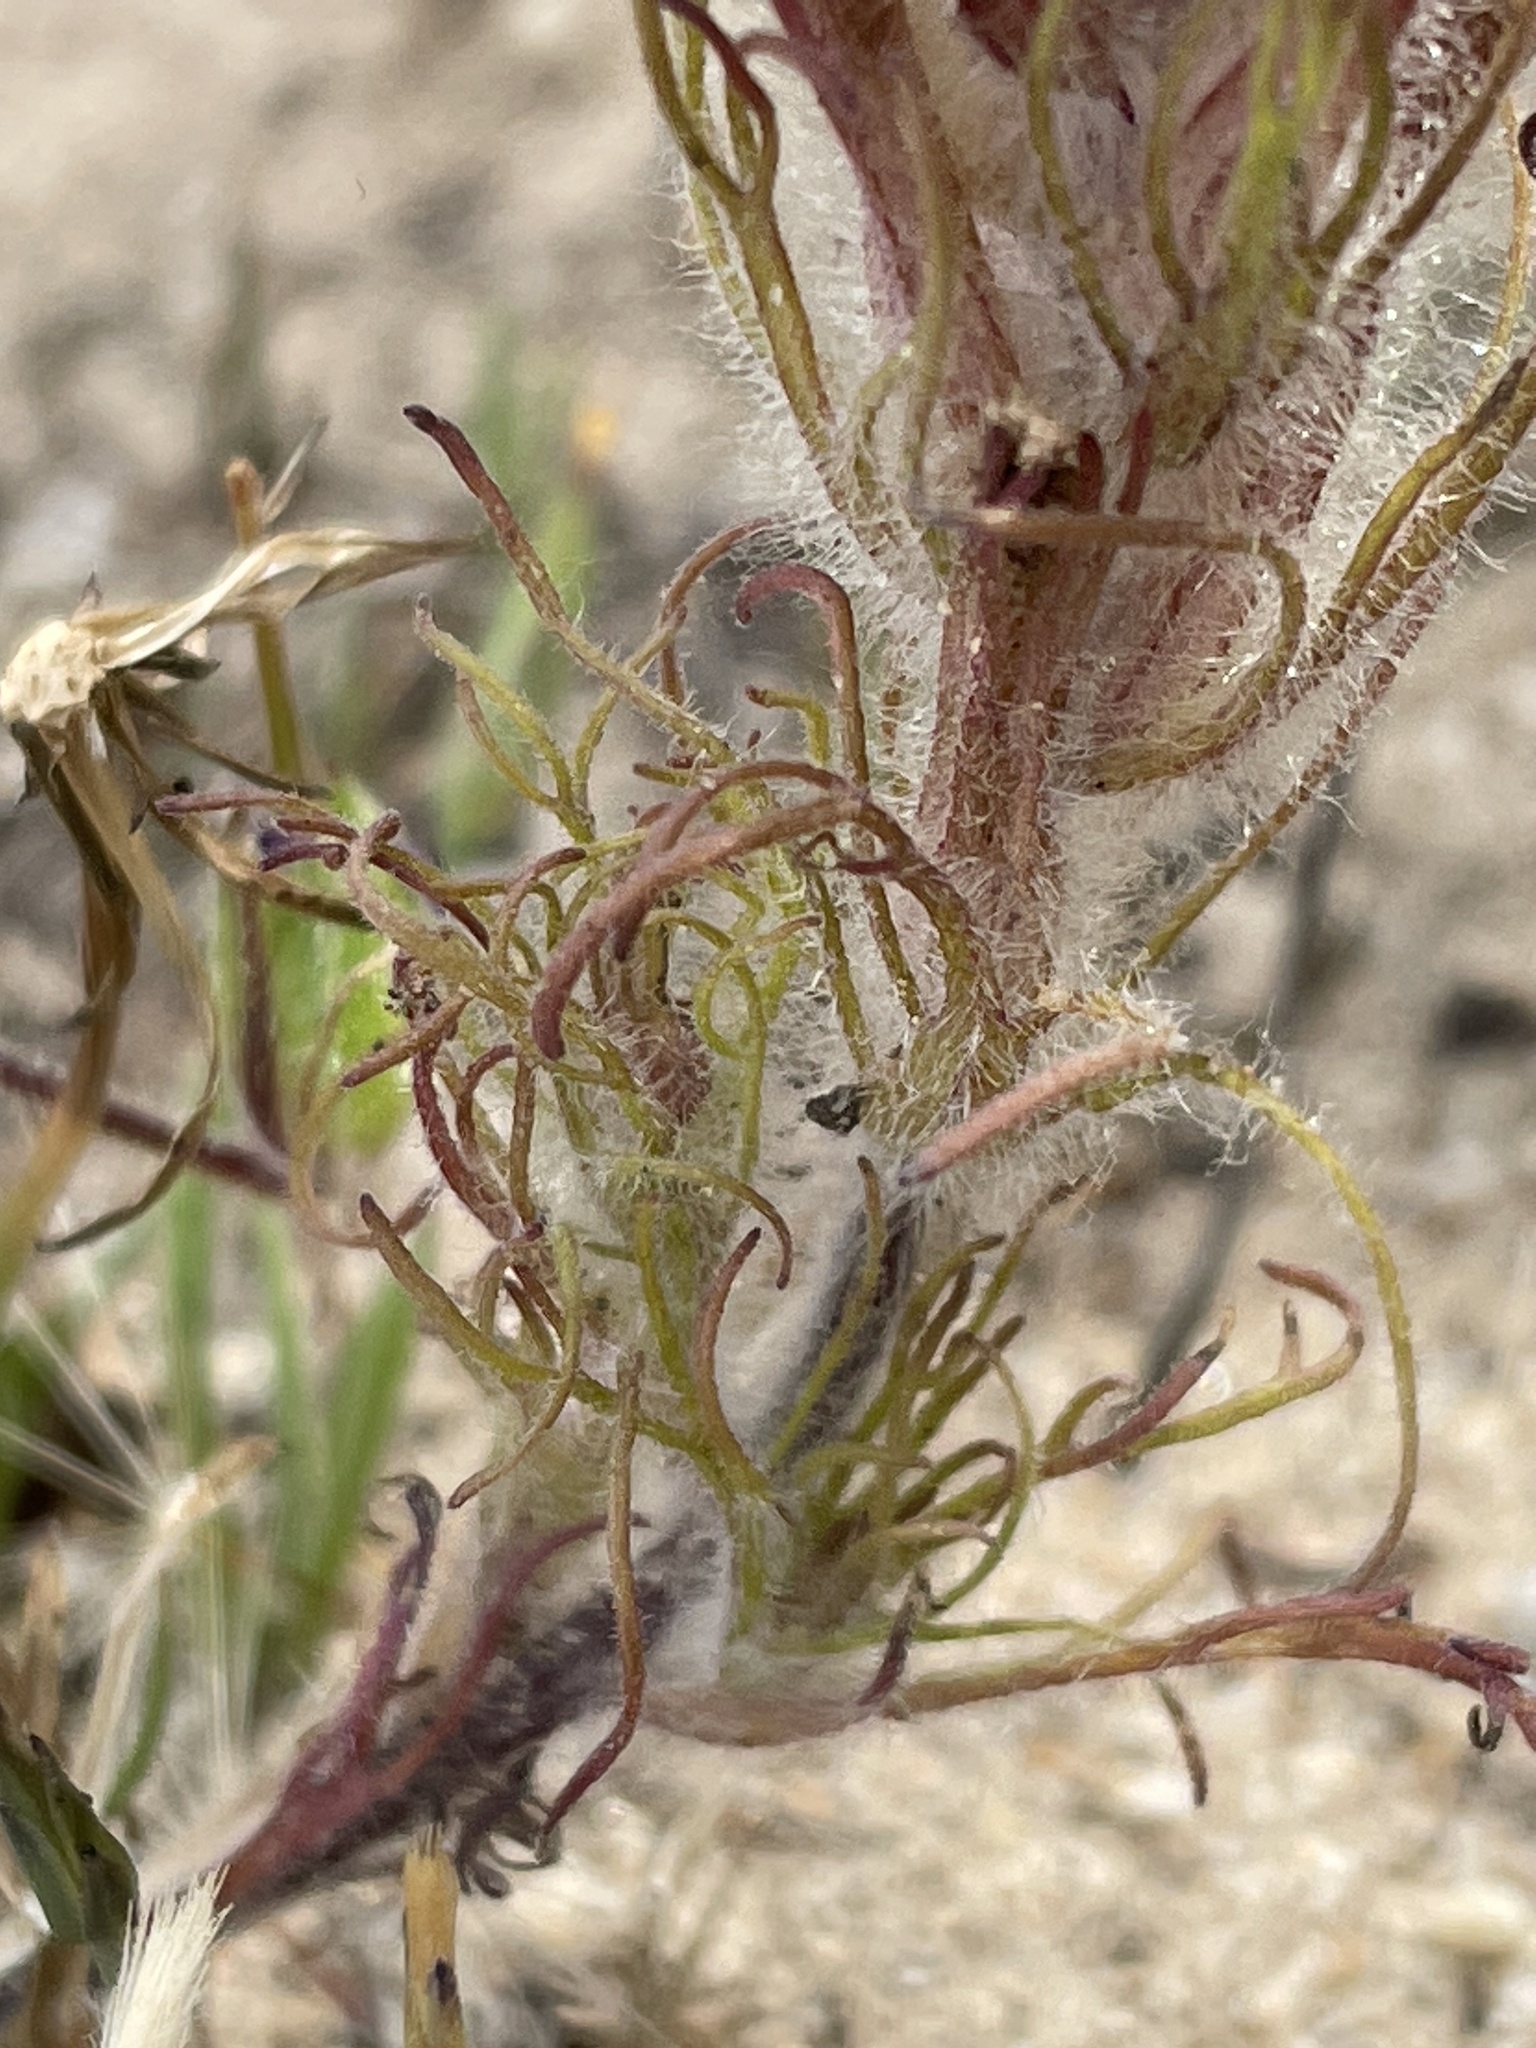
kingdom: Plantae
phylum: Tracheophyta
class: Magnoliopsida
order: Lamiales
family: Orobanchaceae
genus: Castilleja
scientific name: Castilleja exserta
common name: Purple owl-clover
